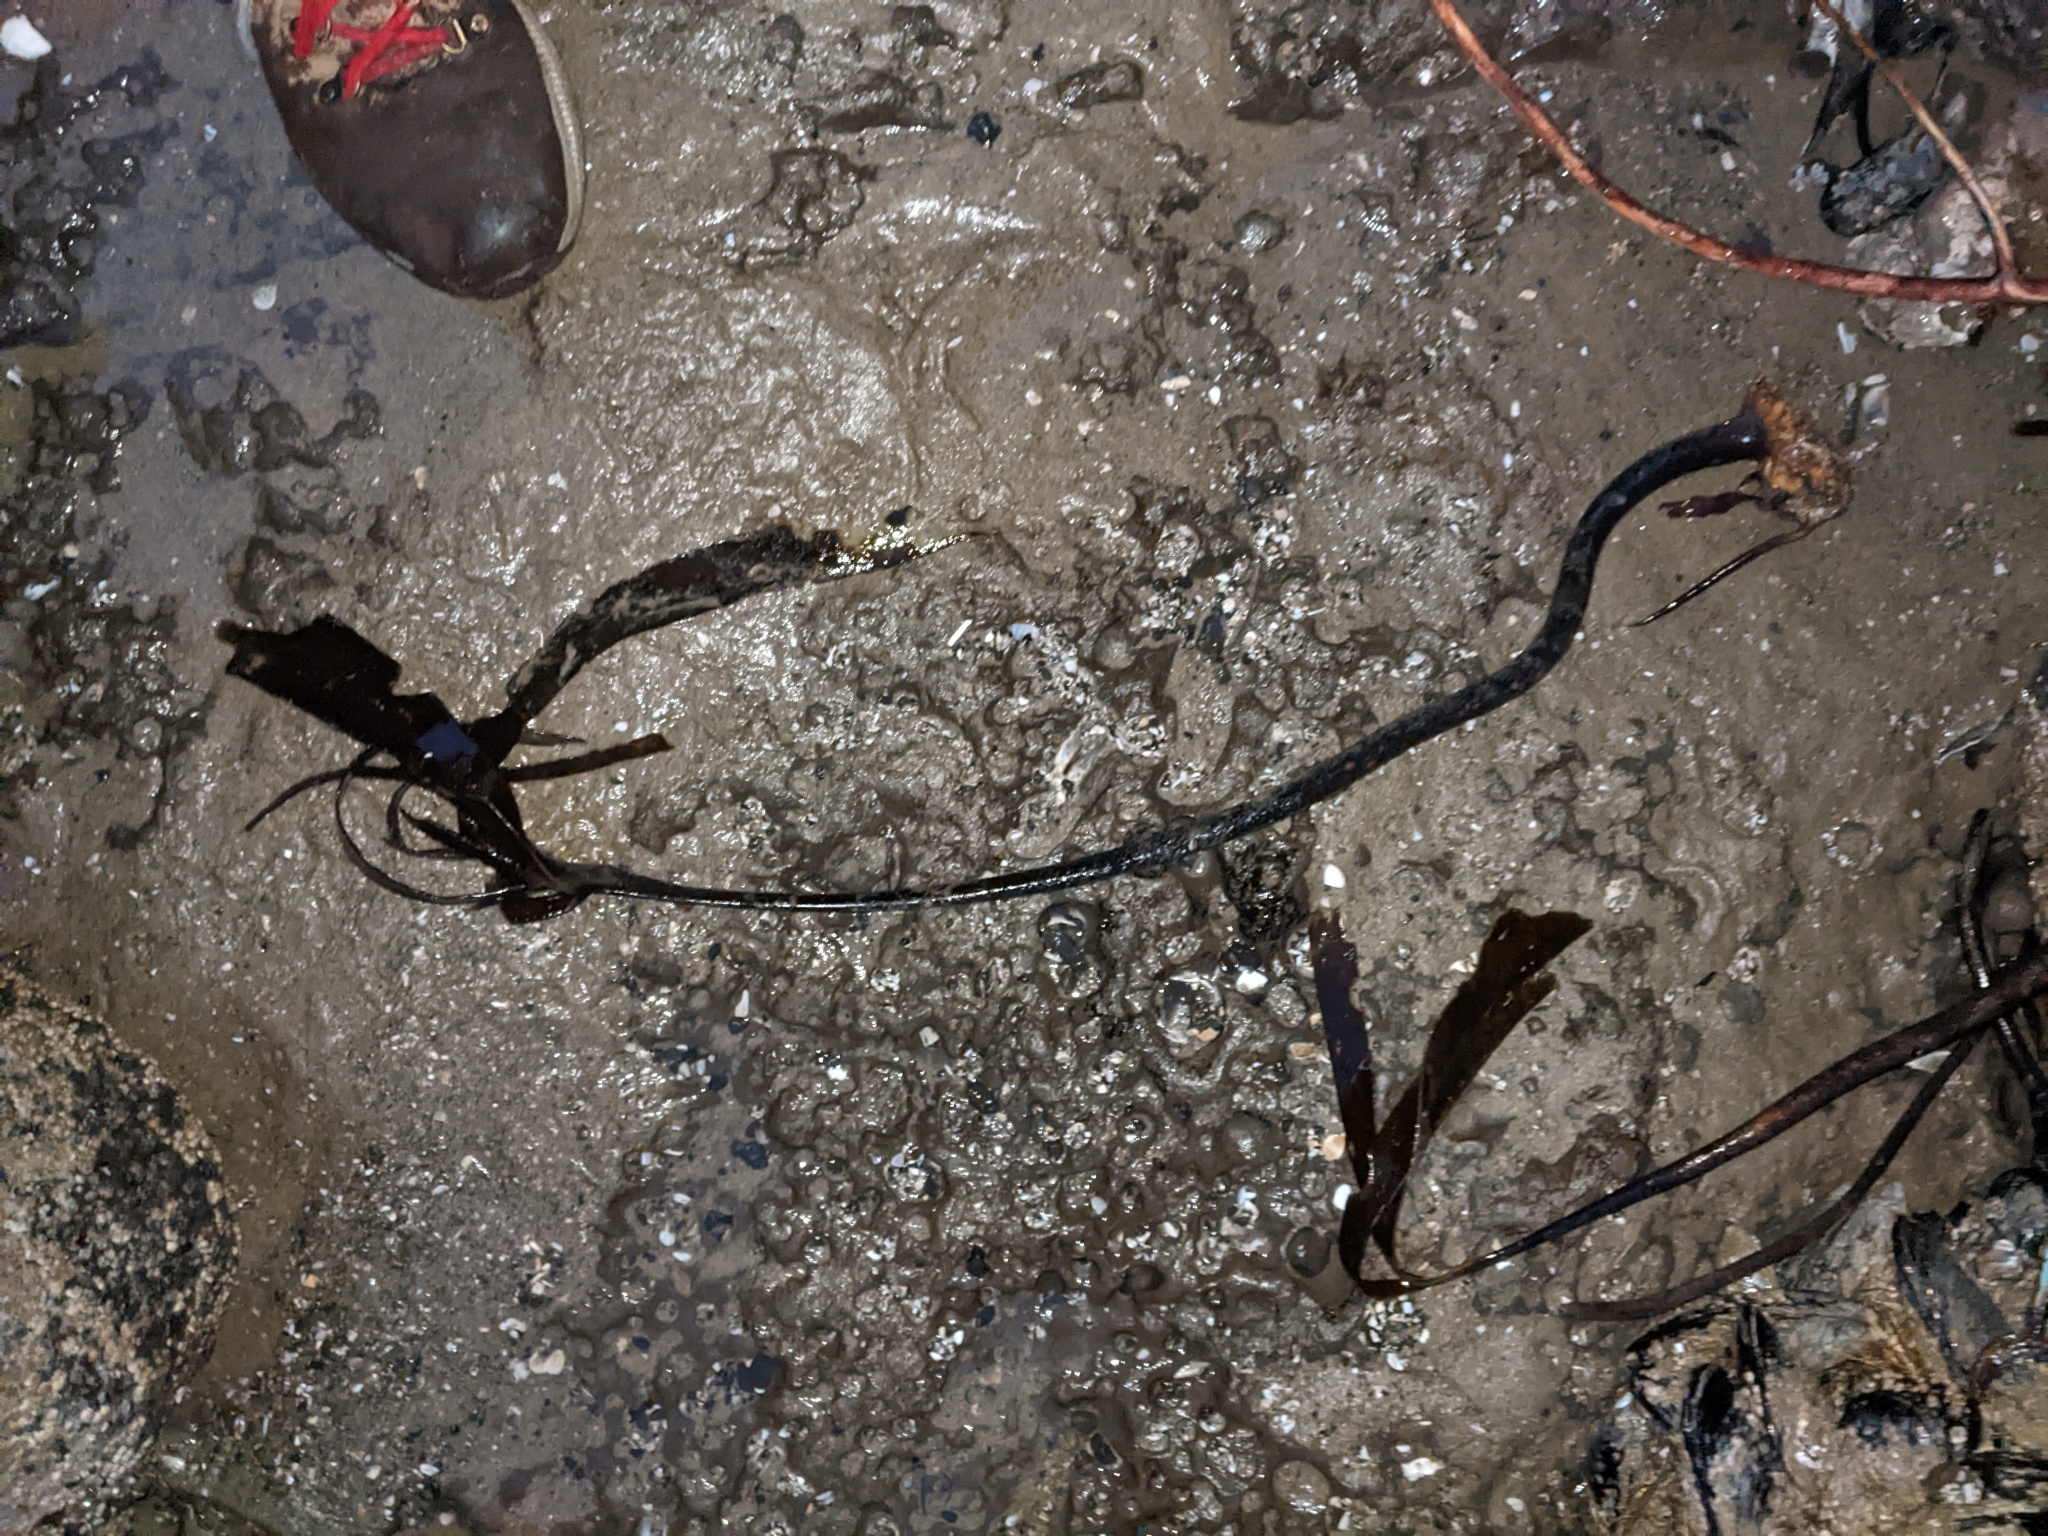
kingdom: Chromista
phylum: Ochrophyta
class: Phaeophyceae
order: Laminariales
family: Laminariaceae
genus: Laminaria
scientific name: Laminaria setchellii
